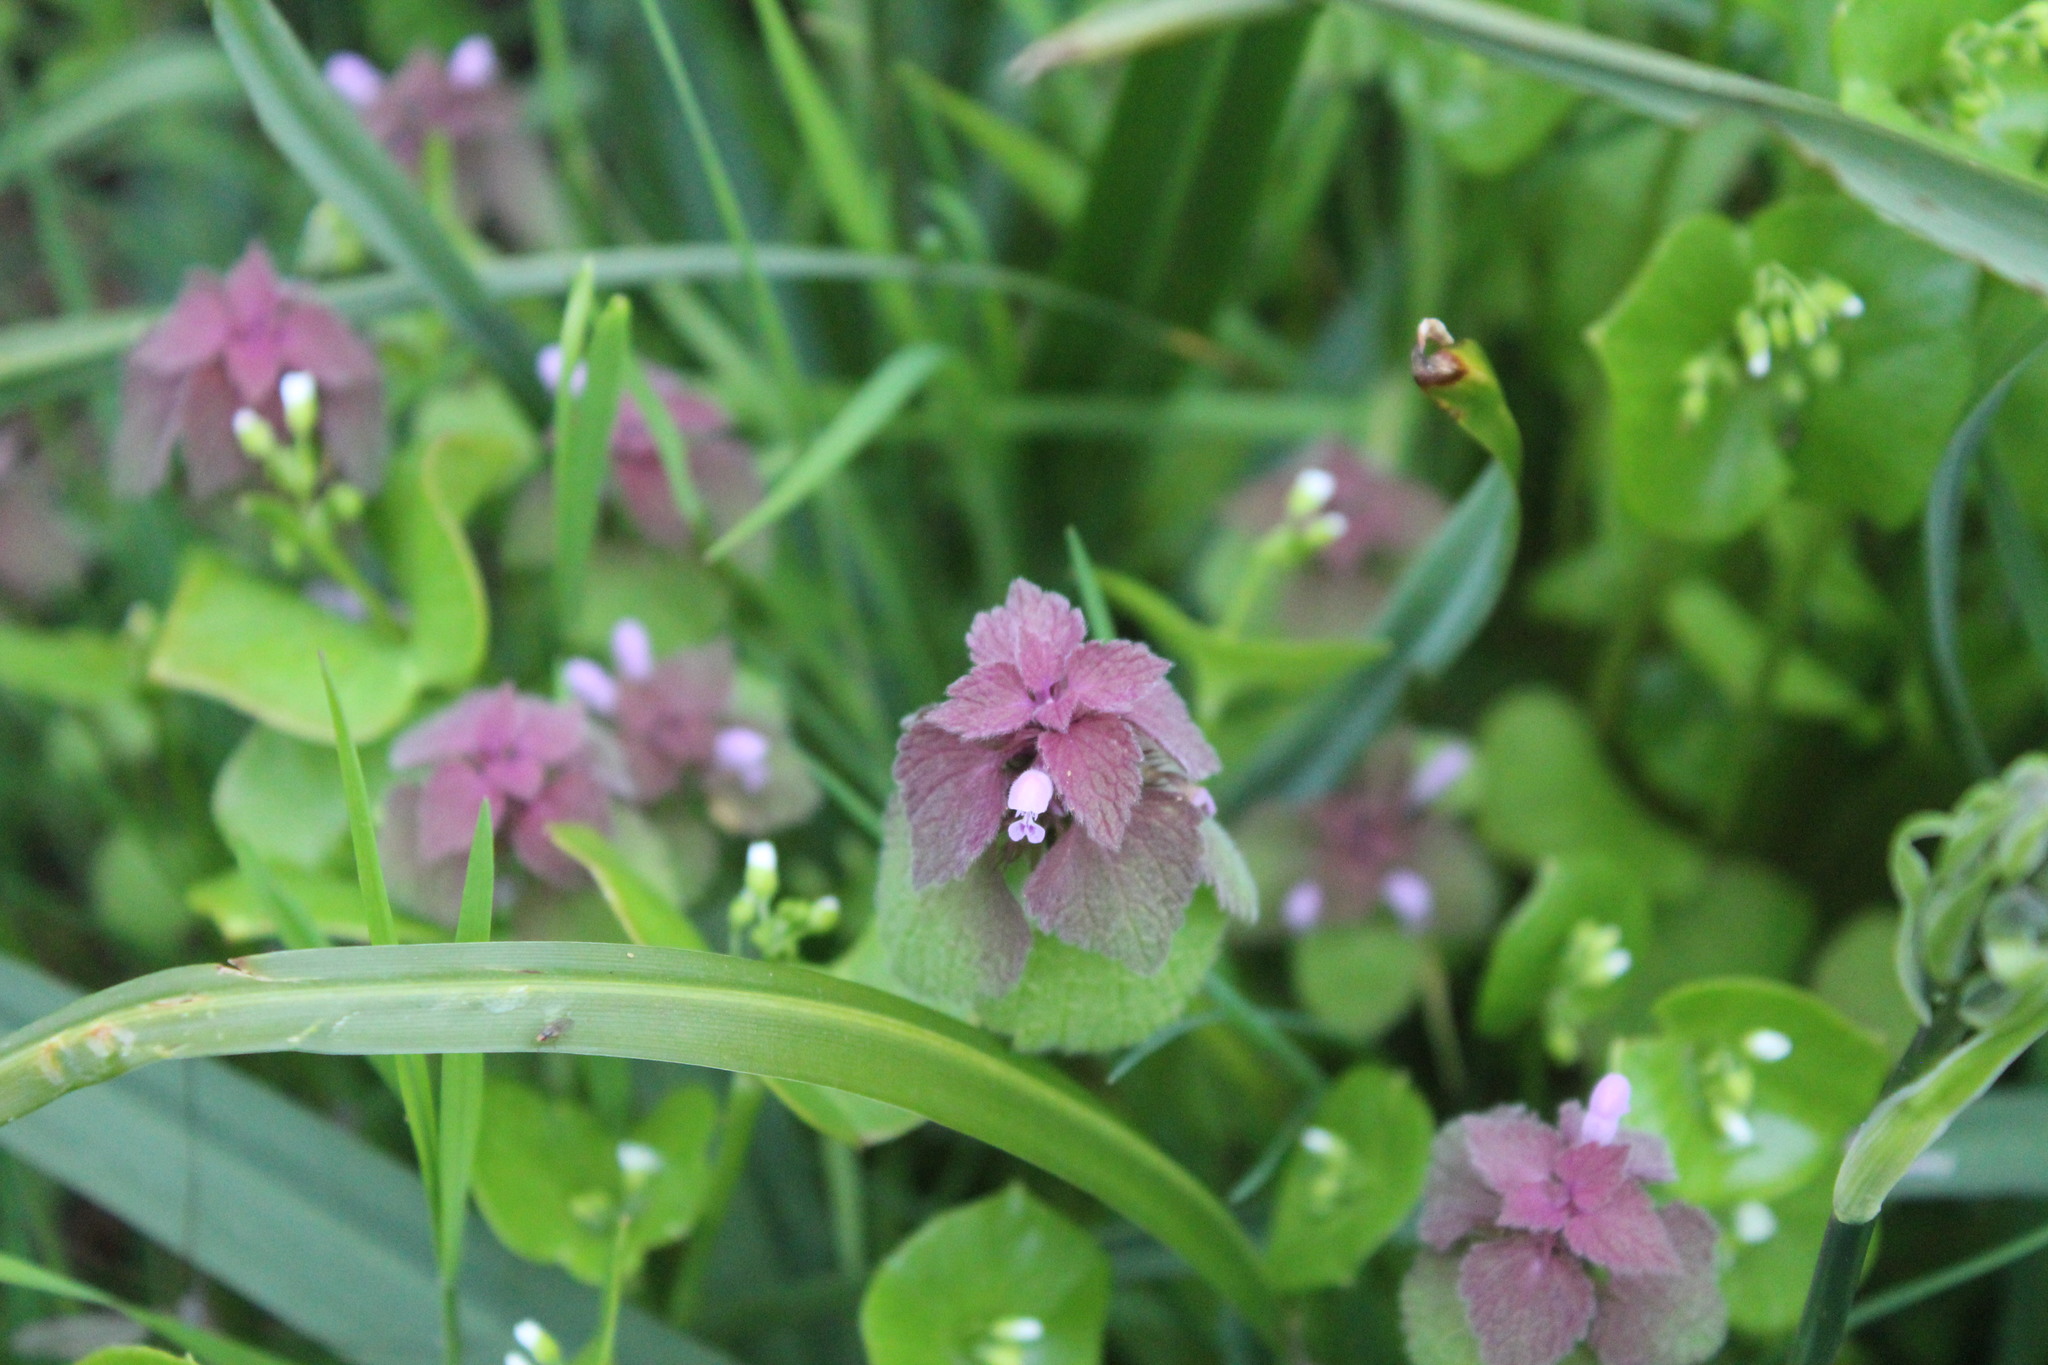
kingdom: Plantae
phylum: Tracheophyta
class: Magnoliopsida
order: Lamiales
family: Lamiaceae
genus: Lamium
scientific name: Lamium purpureum
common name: Red dead-nettle
